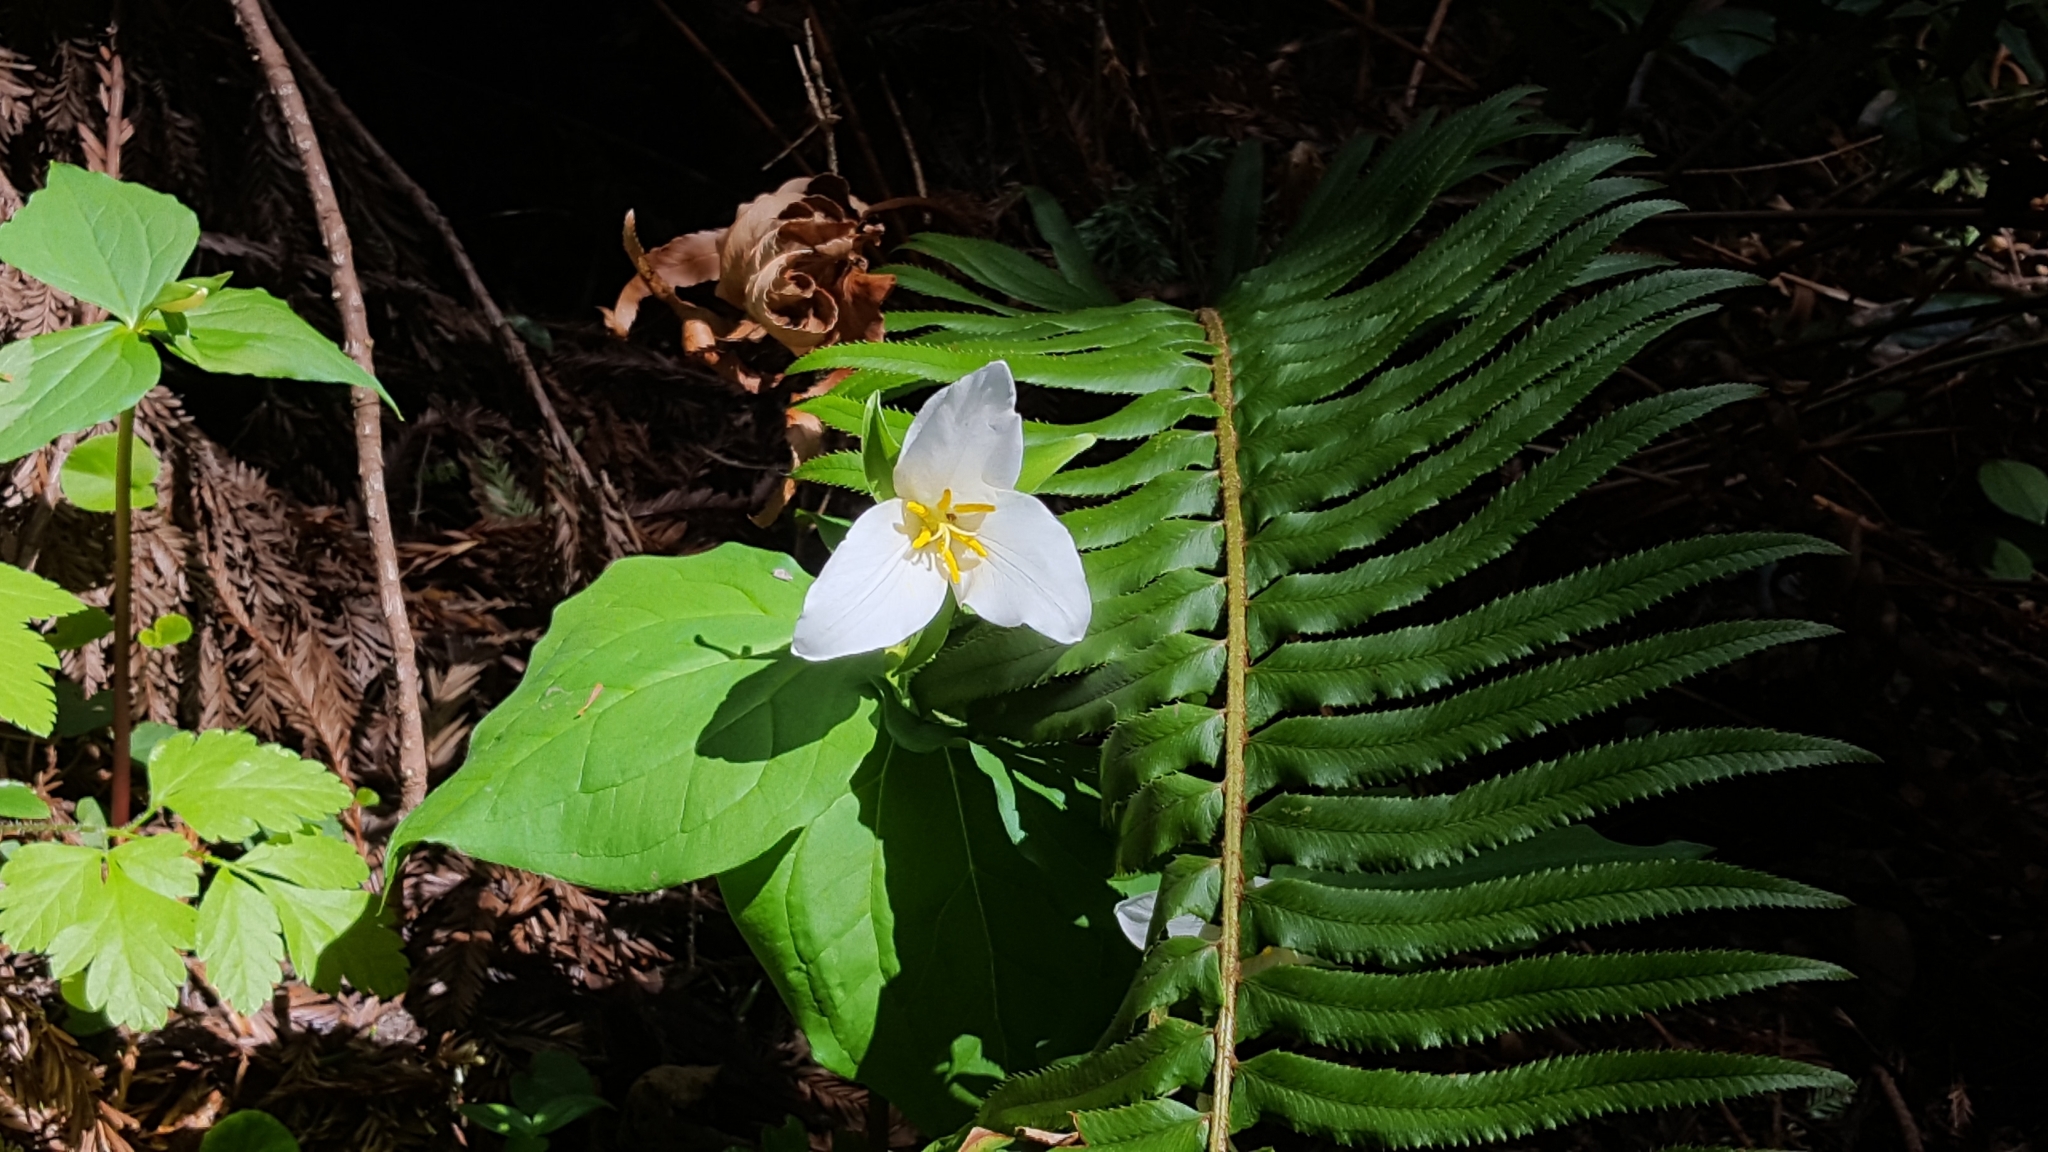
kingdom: Plantae
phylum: Tracheophyta
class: Liliopsida
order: Liliales
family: Melanthiaceae
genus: Trillium
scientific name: Trillium ovatum
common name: Pacific trillium
